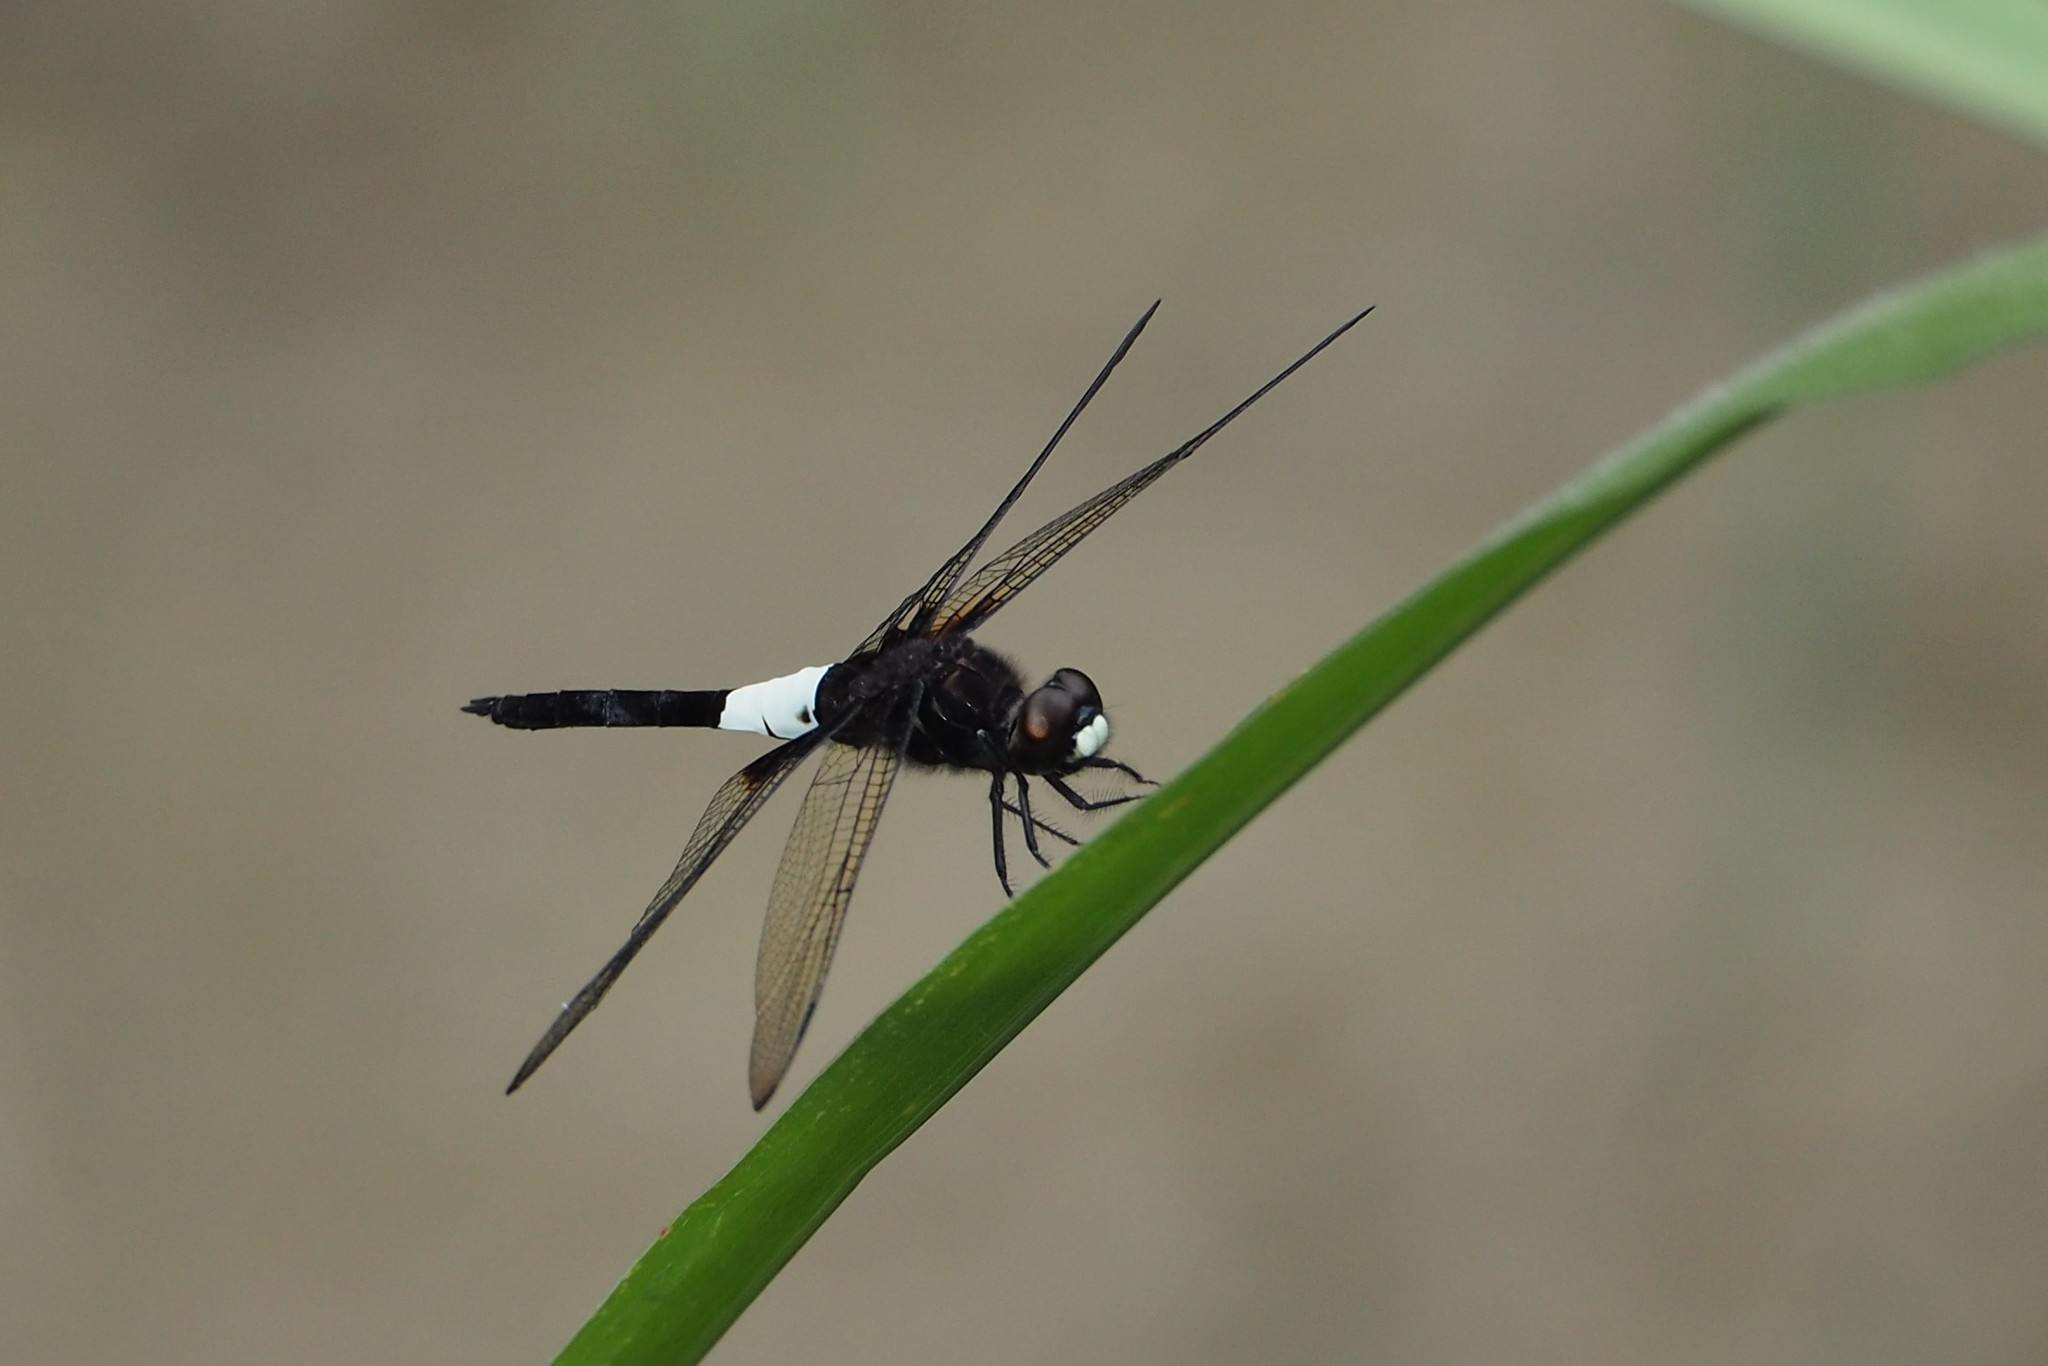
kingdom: Animalia
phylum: Arthropoda
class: Insecta
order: Odonata
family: Libellulidae
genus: Pseudothemis
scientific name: Pseudothemis zonata
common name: Pied skimmer
